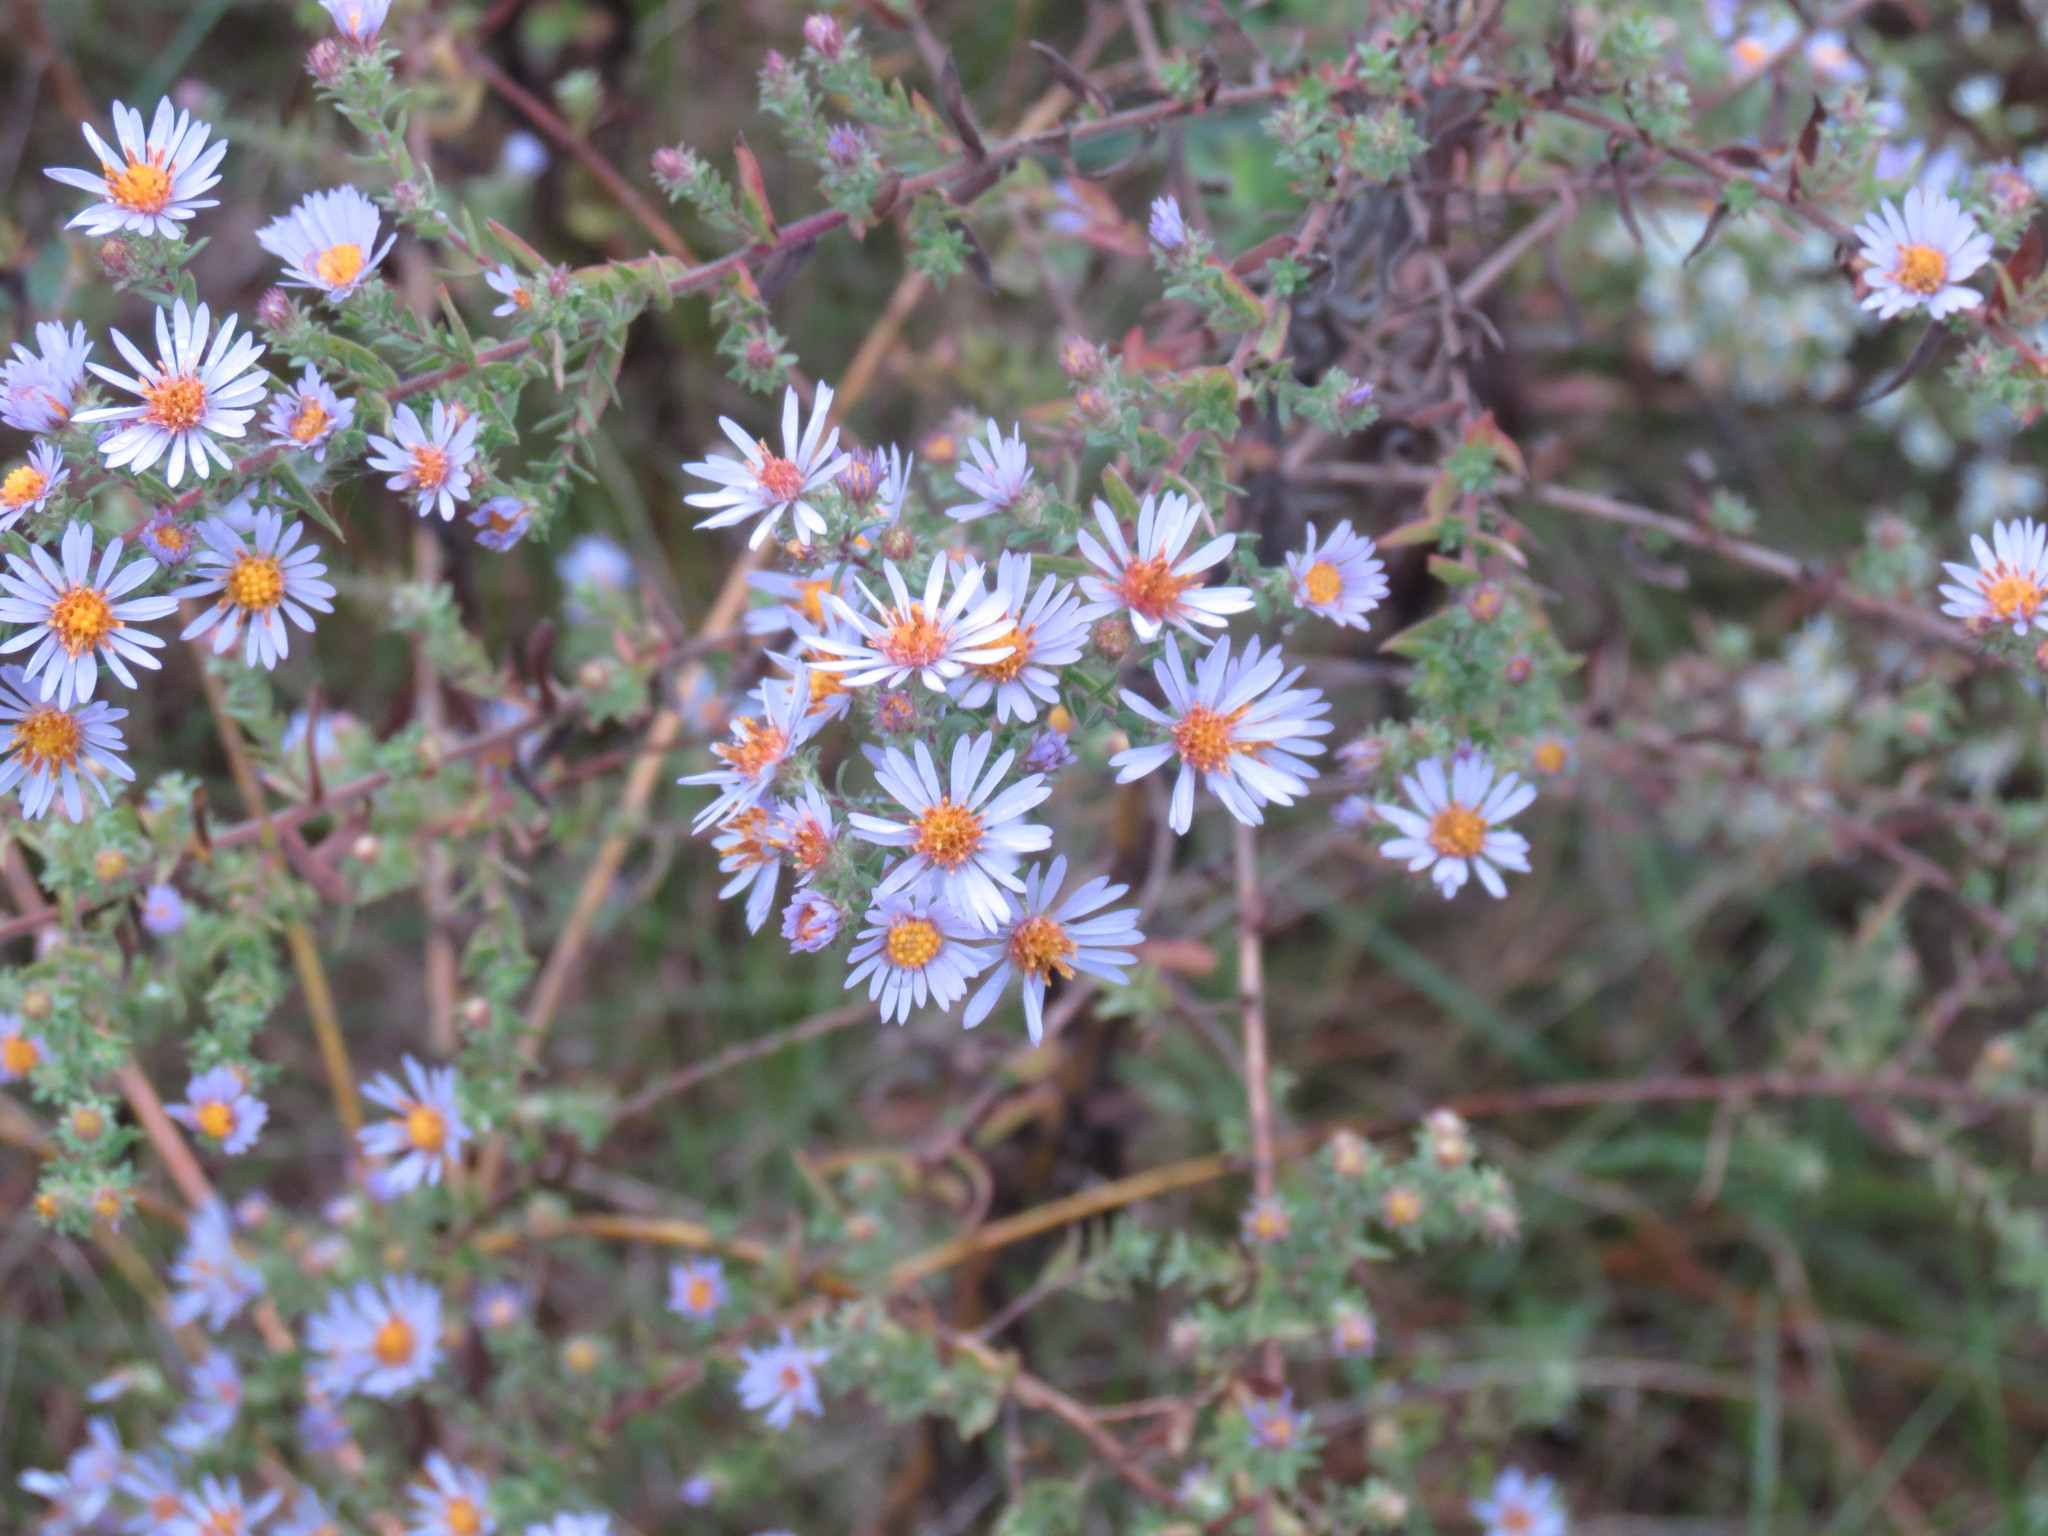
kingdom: Plantae
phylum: Tracheophyta
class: Magnoliopsida
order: Asterales
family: Asteraceae
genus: Symphyotrichum
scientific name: Symphyotrichum amethystinum
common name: Amethyst aster
